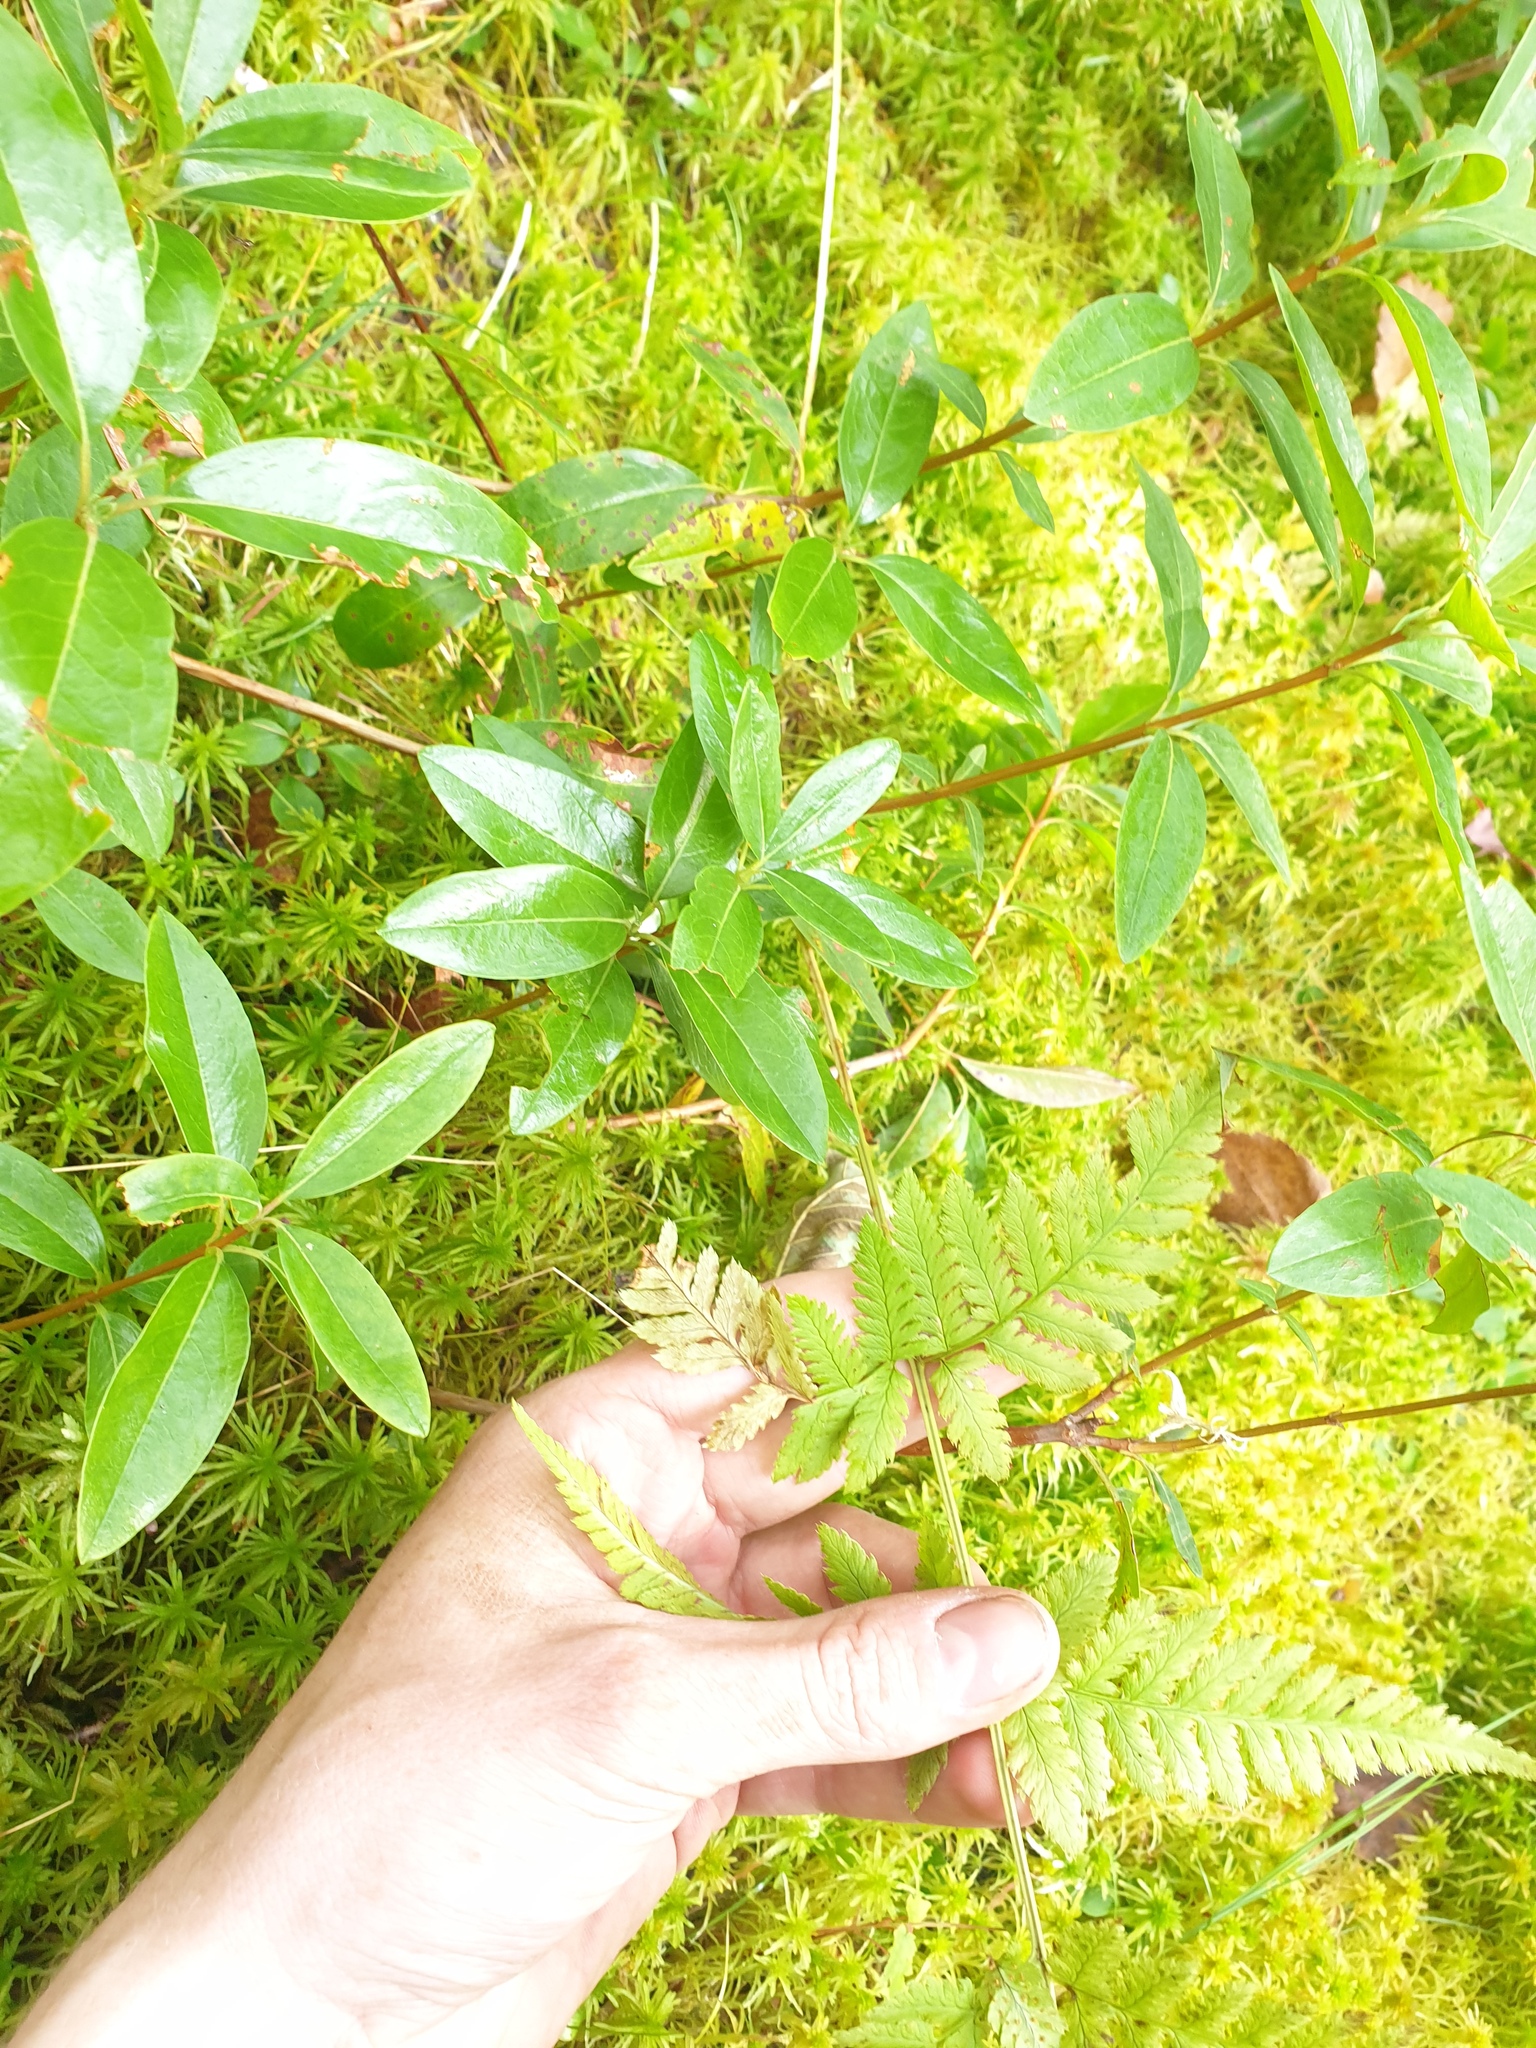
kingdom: Plantae
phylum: Tracheophyta
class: Polypodiopsida
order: Polypodiales
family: Dryopteridaceae
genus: Dryopteris
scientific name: Dryopteris carthusiana
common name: Narrow buckler-fern
